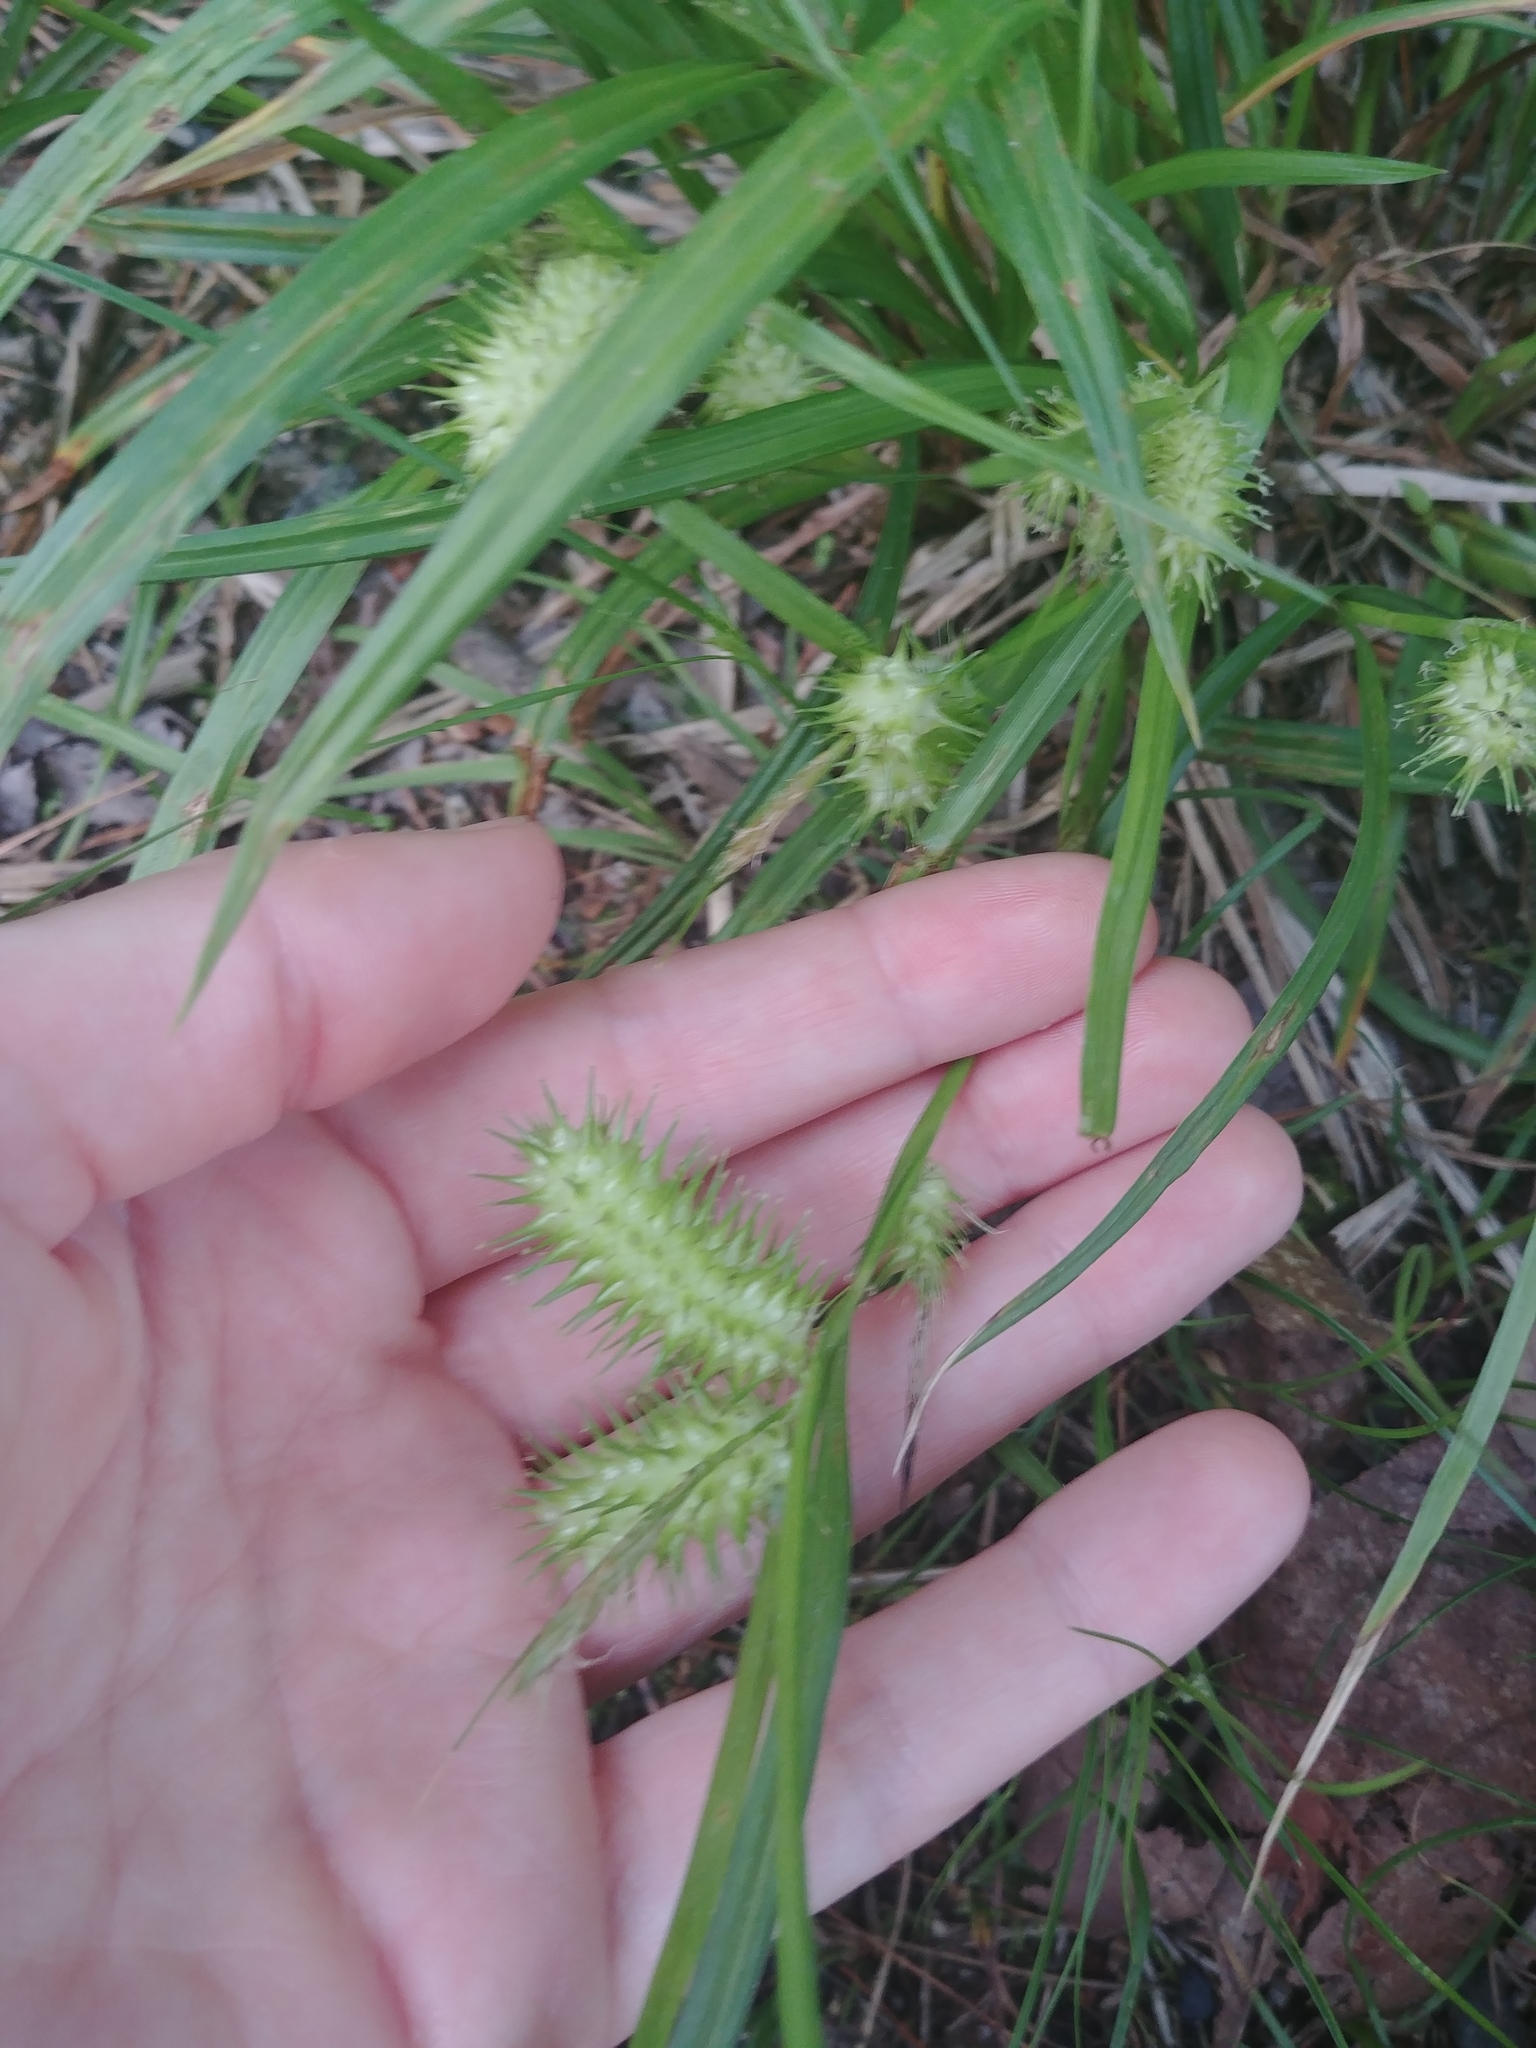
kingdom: Plantae
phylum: Tracheophyta
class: Liliopsida
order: Poales
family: Cyperaceae
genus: Carex
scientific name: Carex lurida
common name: Sallow sedge
